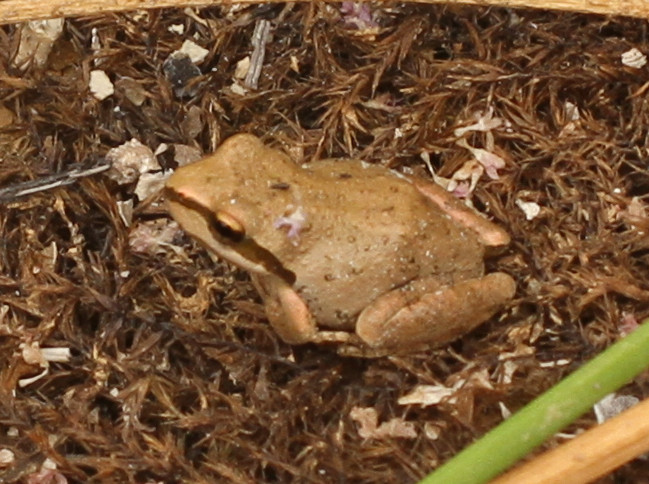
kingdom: Animalia
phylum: Chordata
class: Amphibia
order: Anura
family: Hylidae
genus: Pseudacris
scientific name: Pseudacris regilla
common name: Pacific chorus frog
